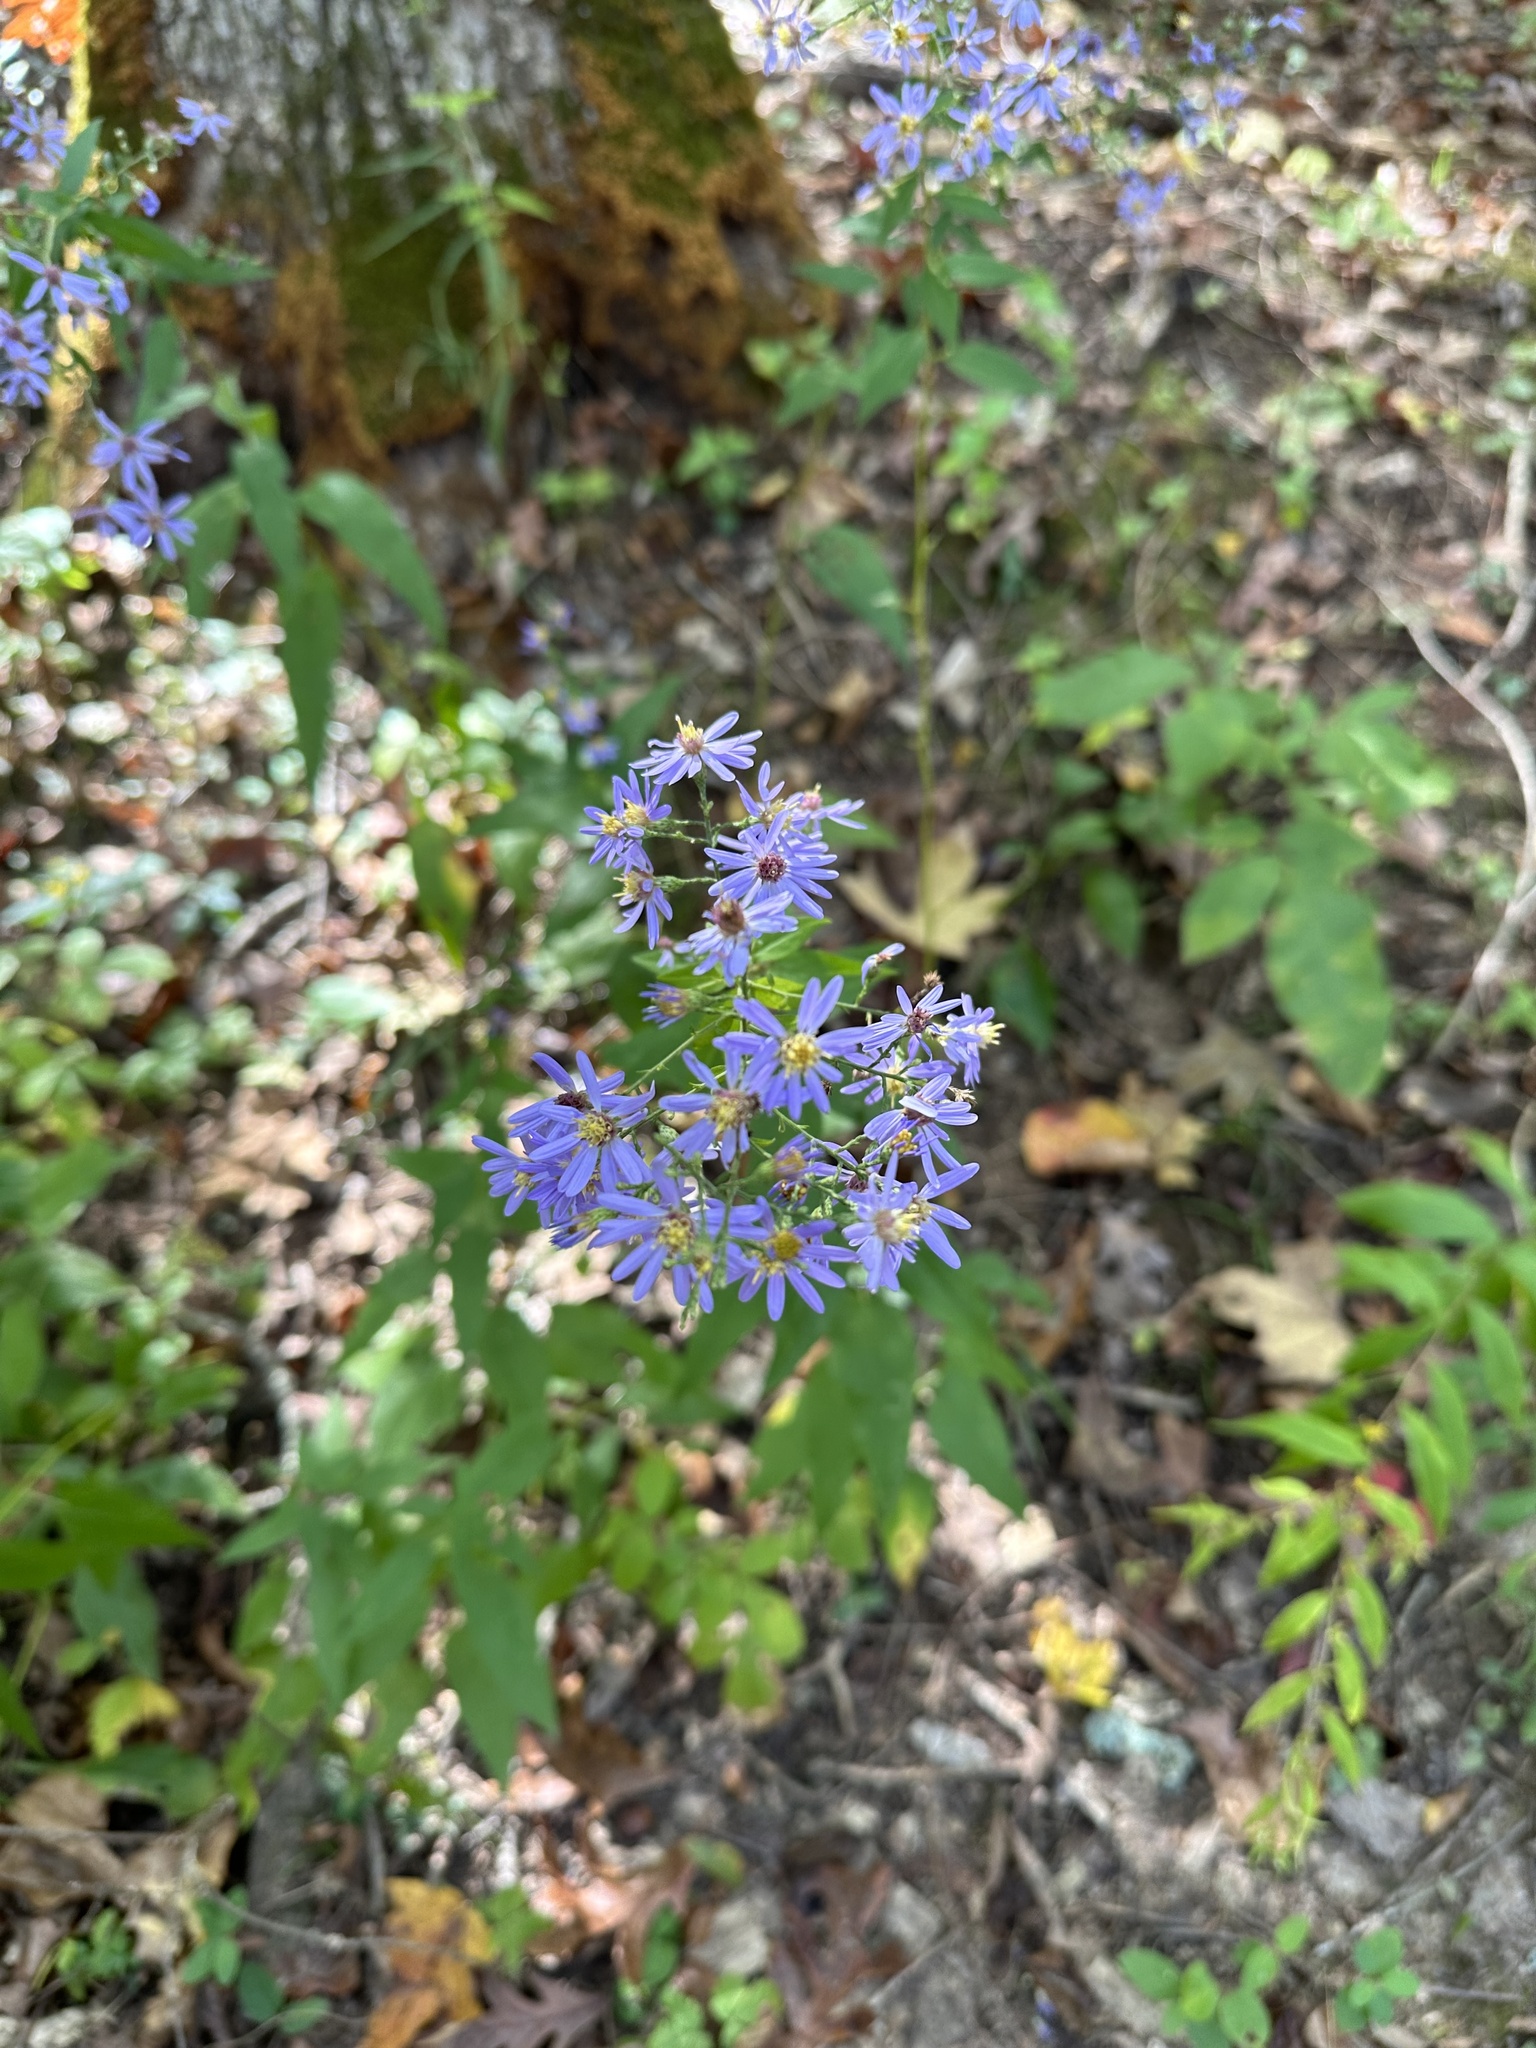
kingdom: Plantae
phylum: Tracheophyta
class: Magnoliopsida
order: Asterales
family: Asteraceae
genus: Symphyotrichum
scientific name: Symphyotrichum shortii
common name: Short's aster
